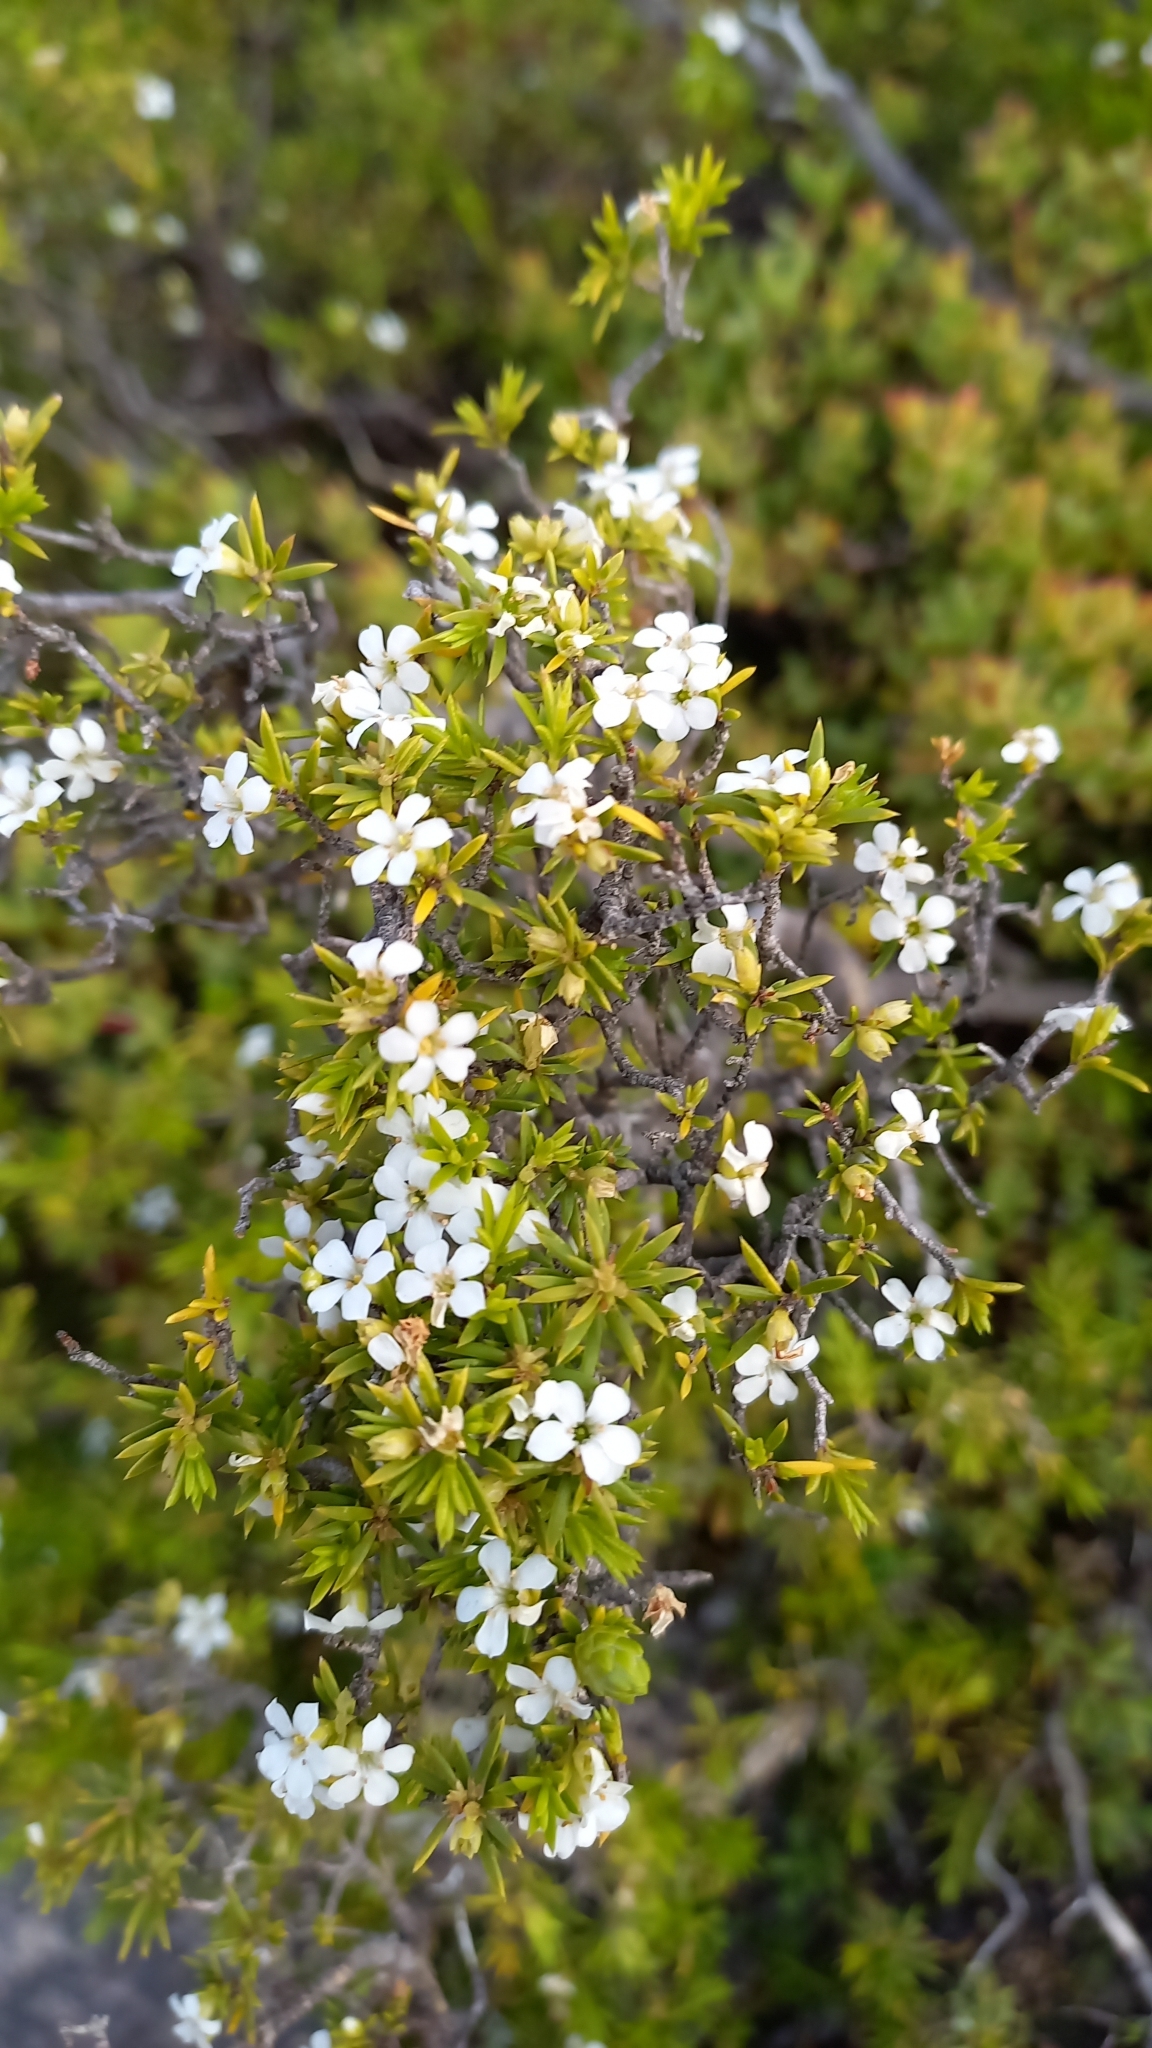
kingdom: Plantae
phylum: Tracheophyta
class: Magnoliopsida
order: Sapindales
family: Rutaceae
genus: Coleonema
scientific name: Coleonema album
